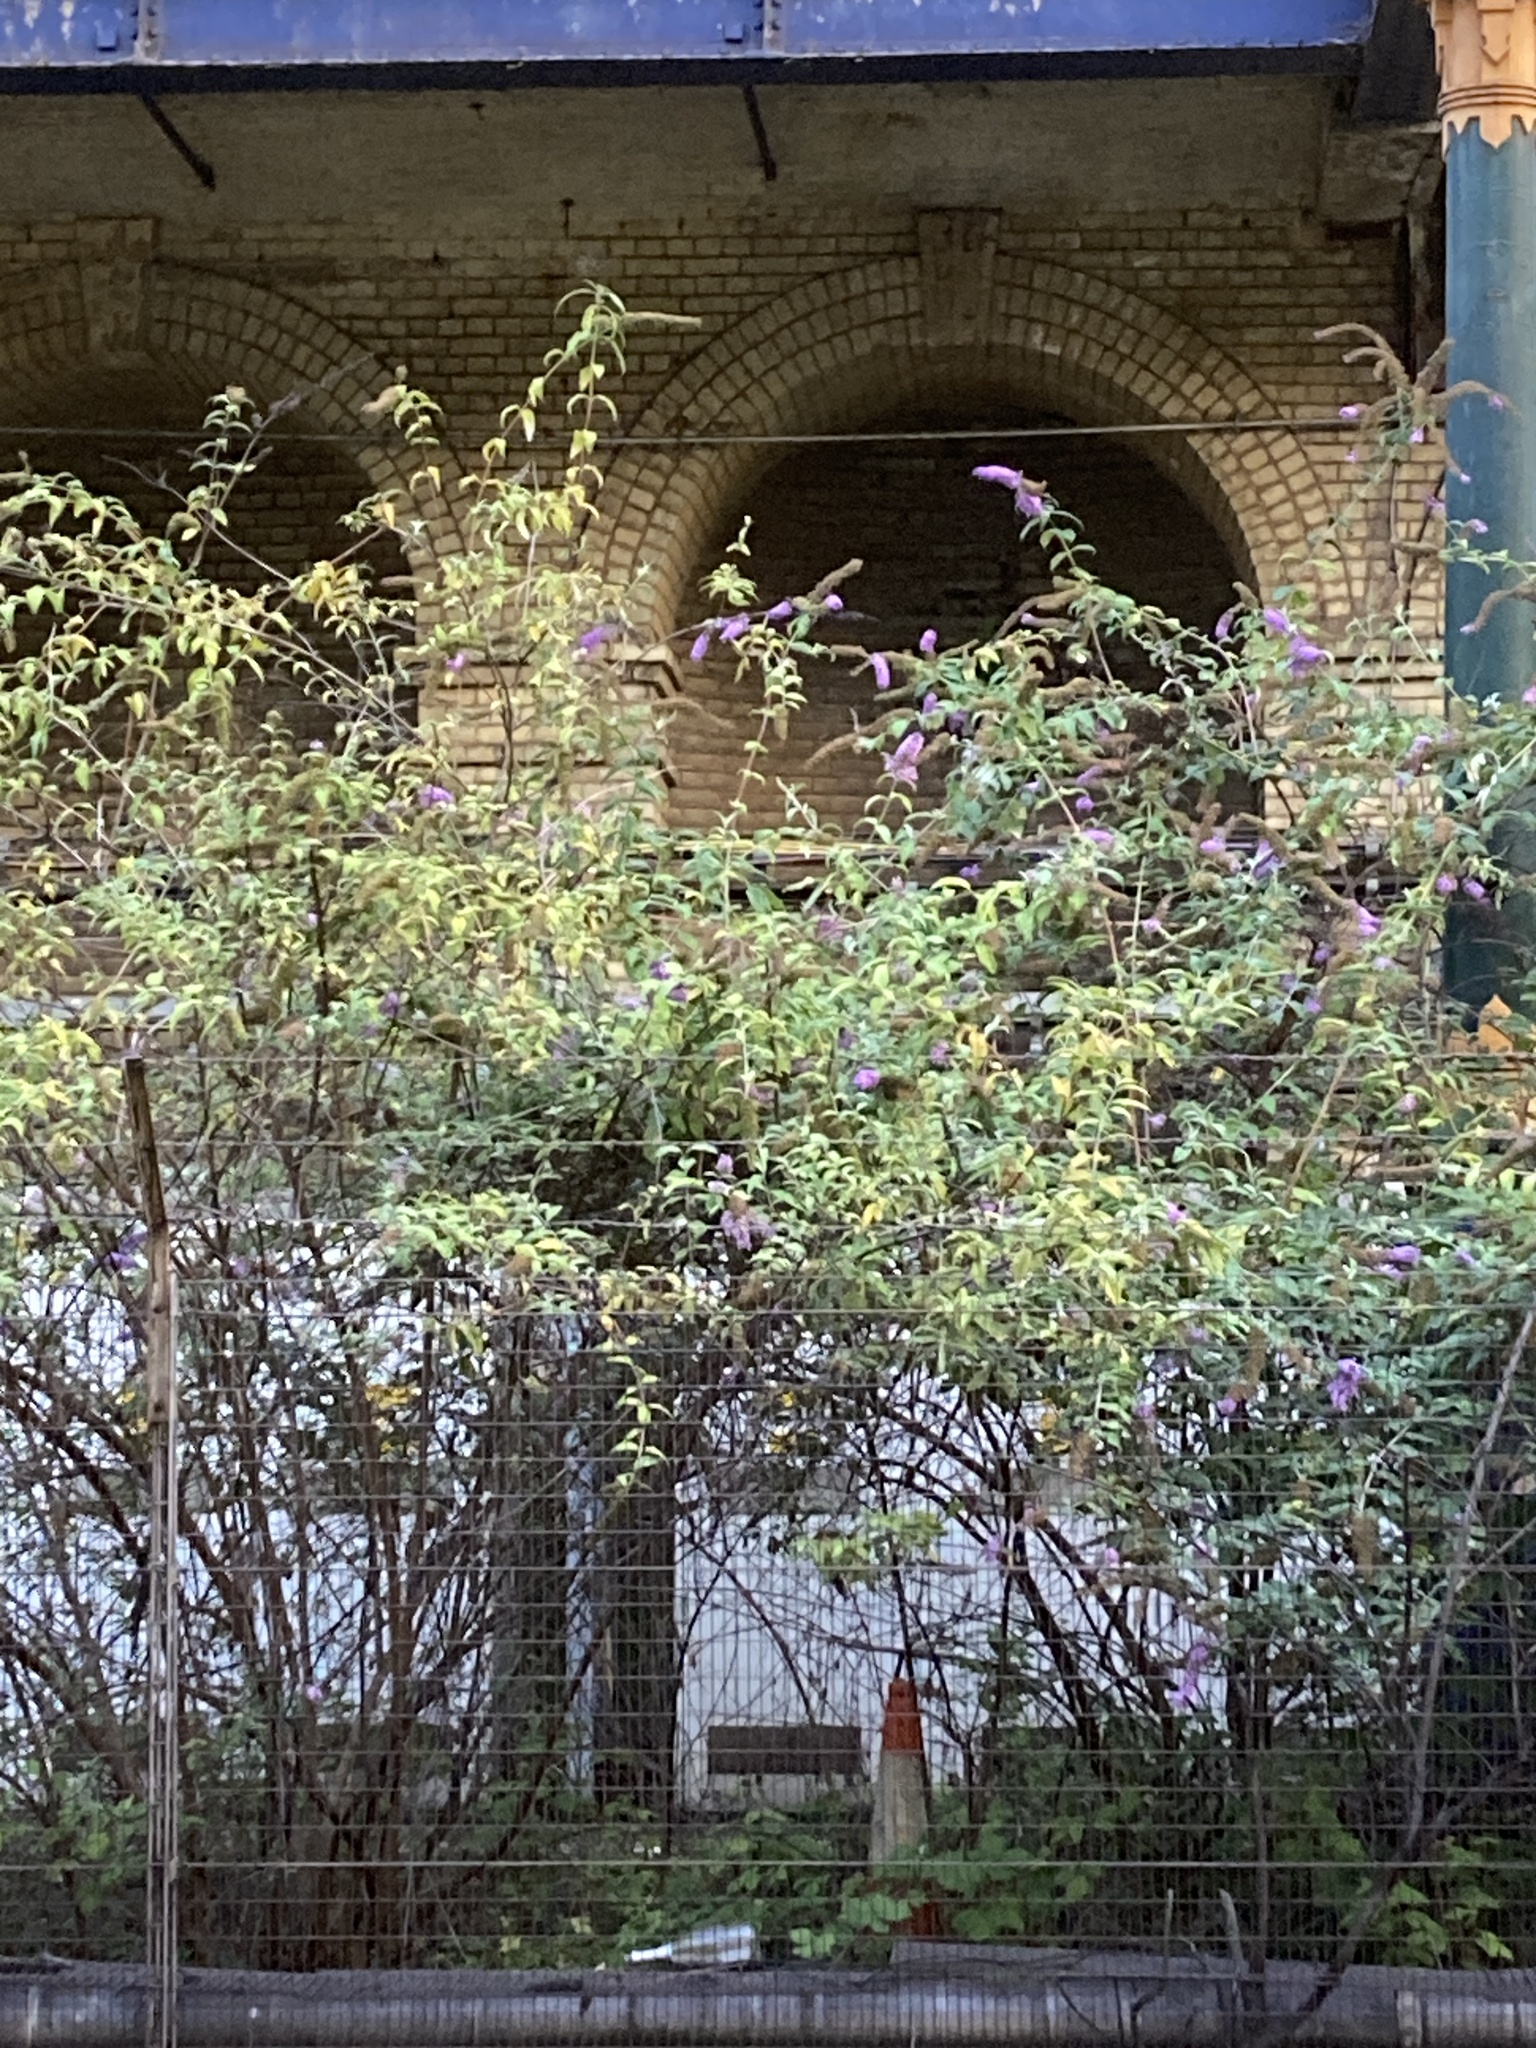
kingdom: Plantae
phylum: Tracheophyta
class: Magnoliopsida
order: Lamiales
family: Scrophulariaceae
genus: Buddleja
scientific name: Buddleja davidii
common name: Butterfly-bush
